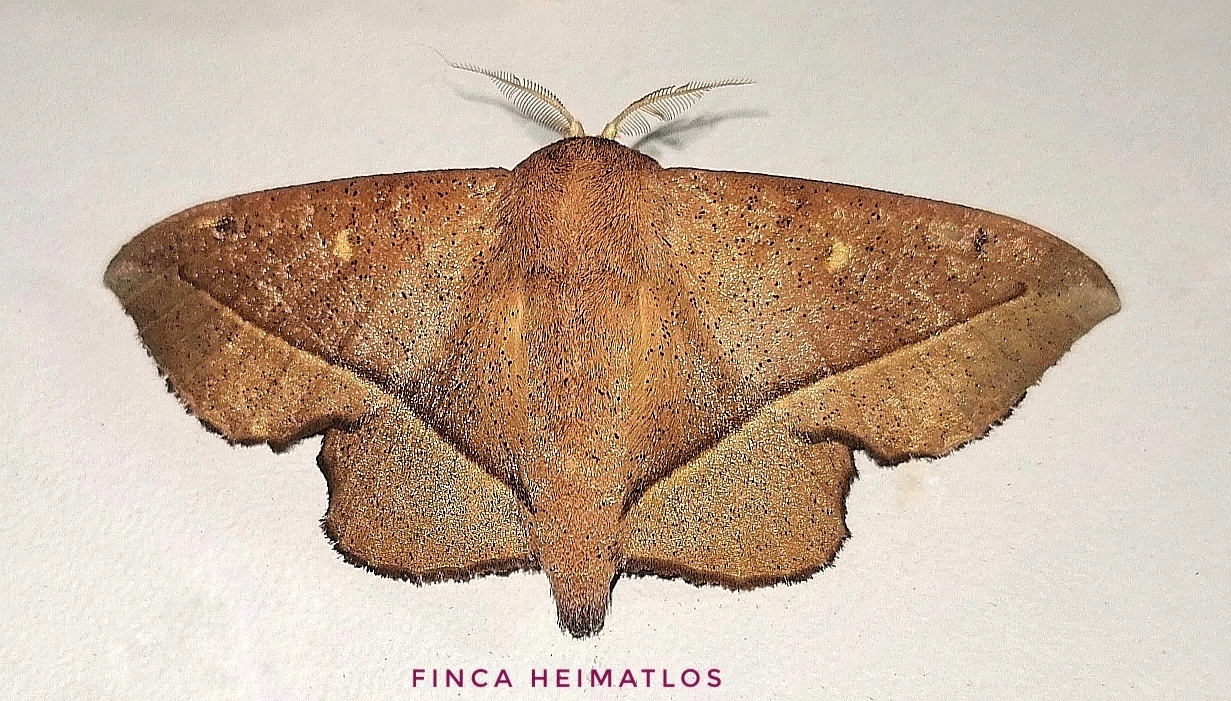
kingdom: Animalia
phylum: Arthropoda
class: Insecta
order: Lepidoptera
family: Mimallonidae
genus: Druentica
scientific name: Druentica partha
